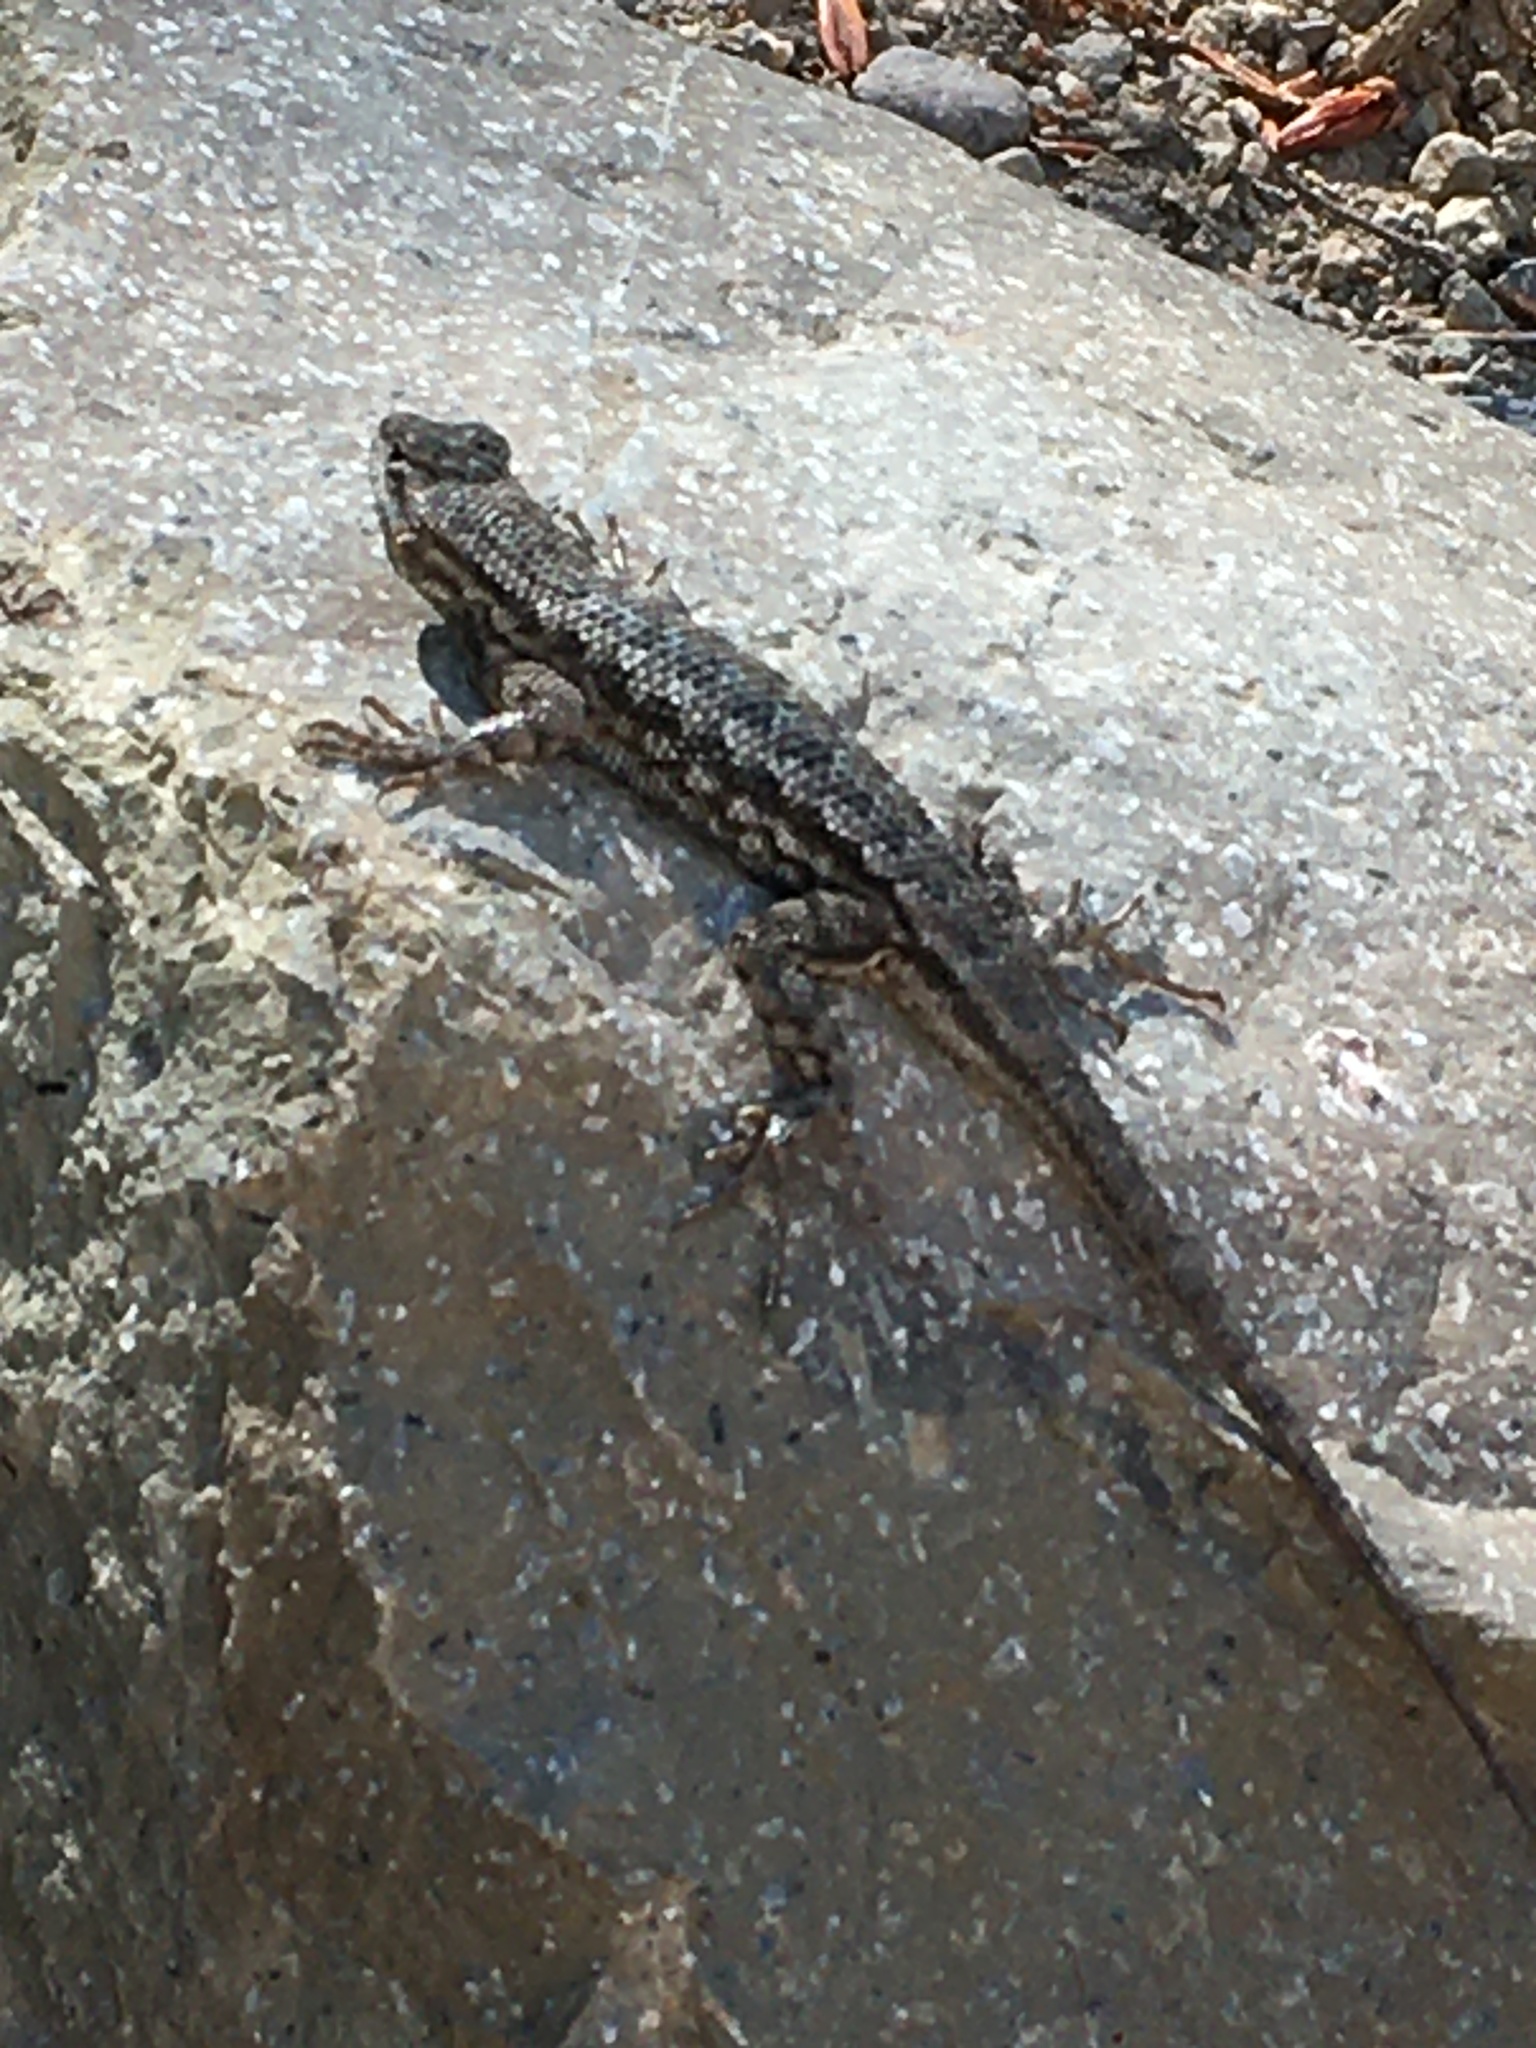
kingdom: Animalia
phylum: Chordata
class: Squamata
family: Phrynosomatidae
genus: Sceloporus
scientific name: Sceloporus occidentalis
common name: Western fence lizard
